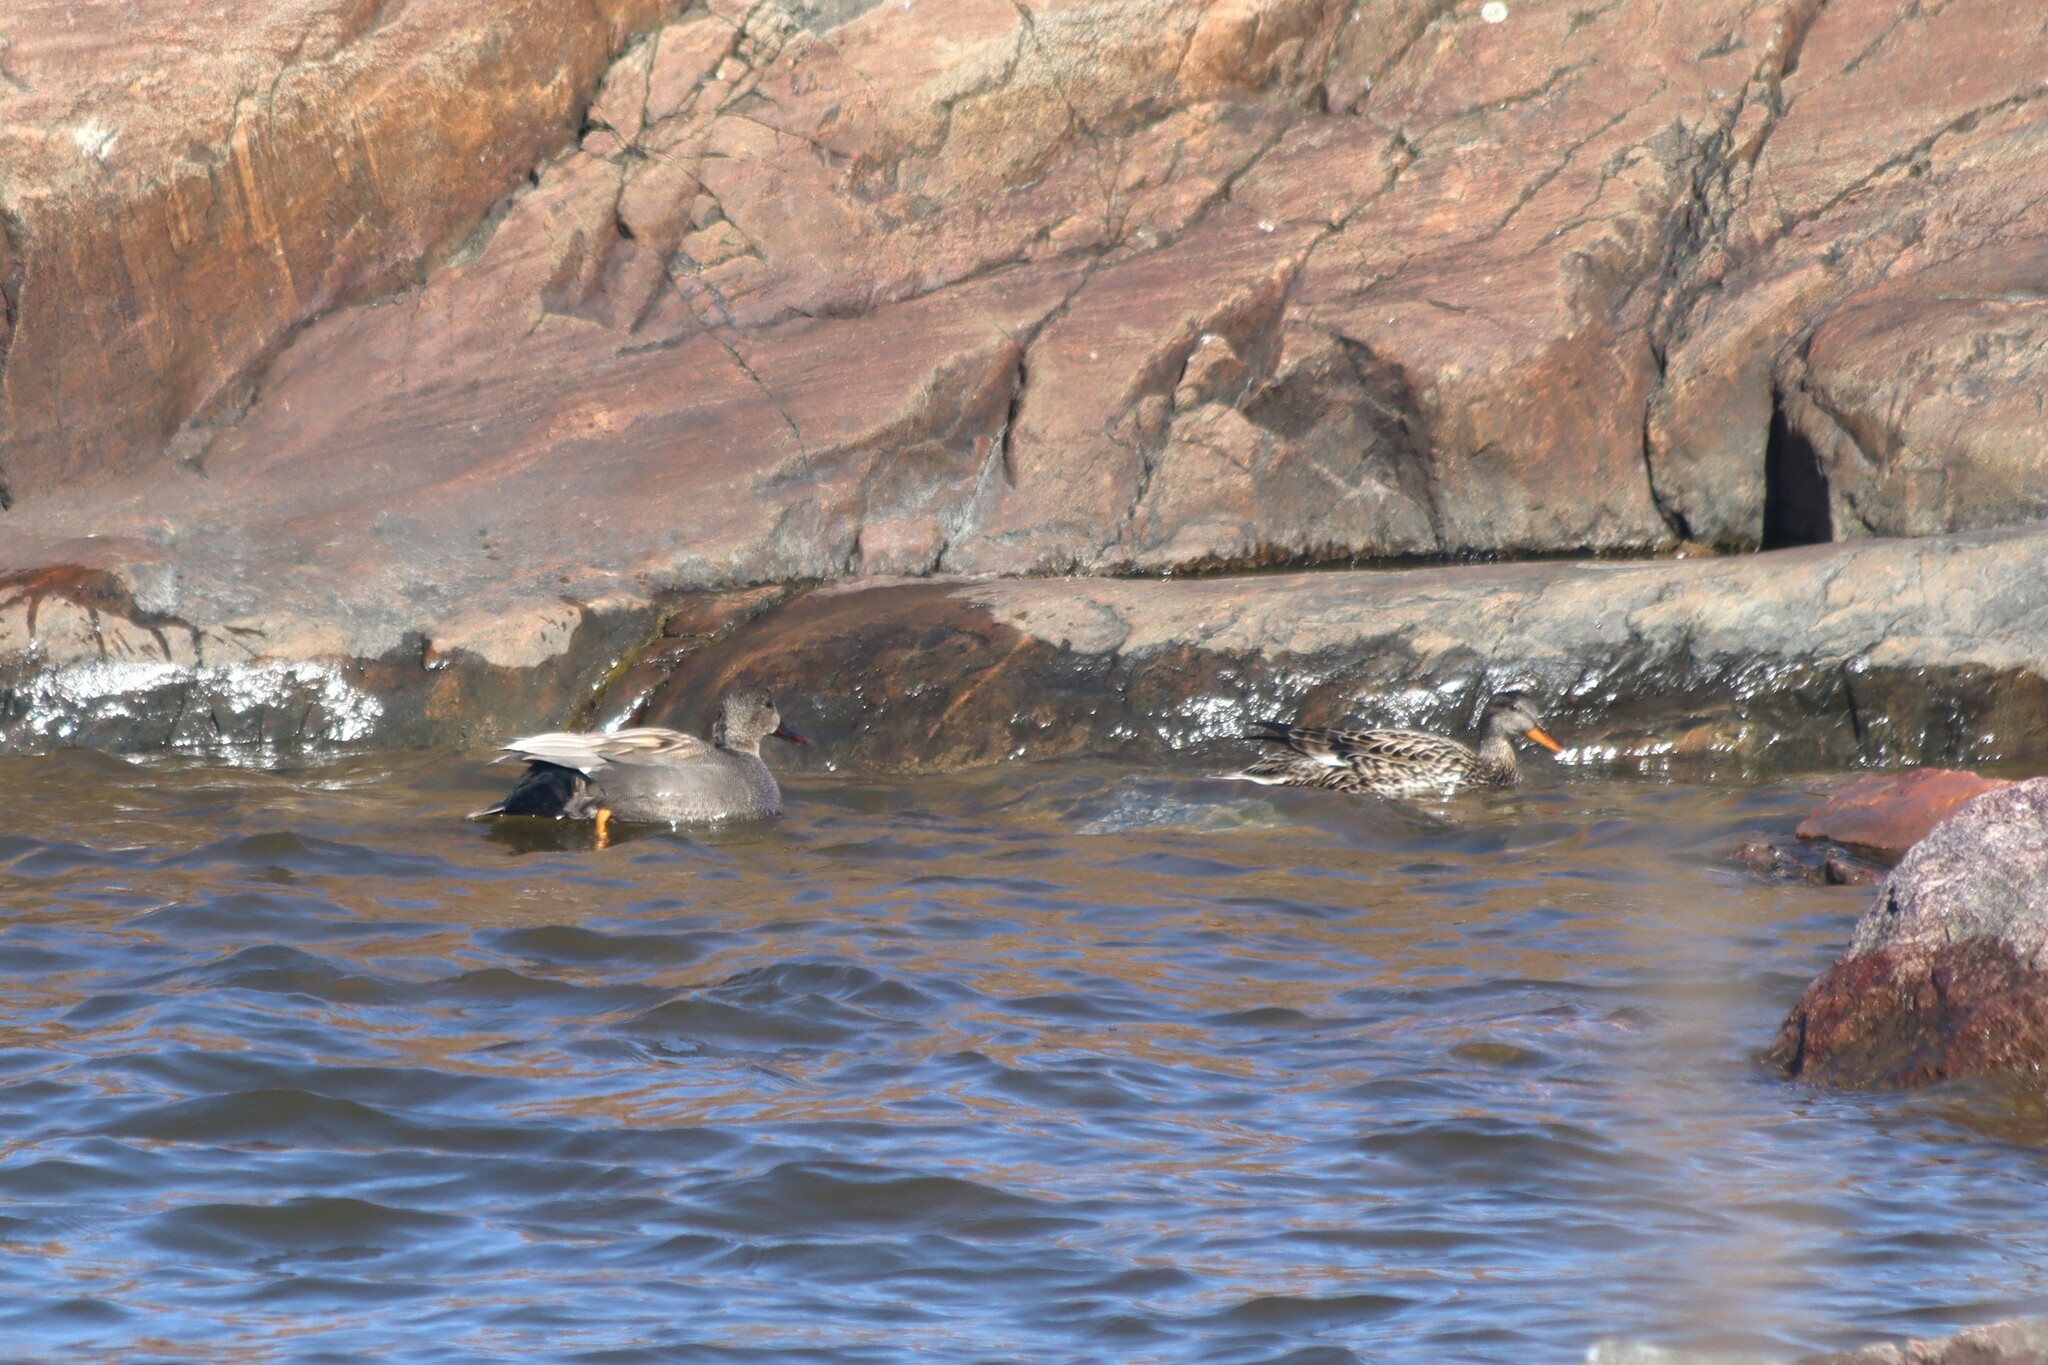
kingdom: Animalia
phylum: Chordata
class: Aves
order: Anseriformes
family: Anatidae
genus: Mareca
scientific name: Mareca strepera
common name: Gadwall
